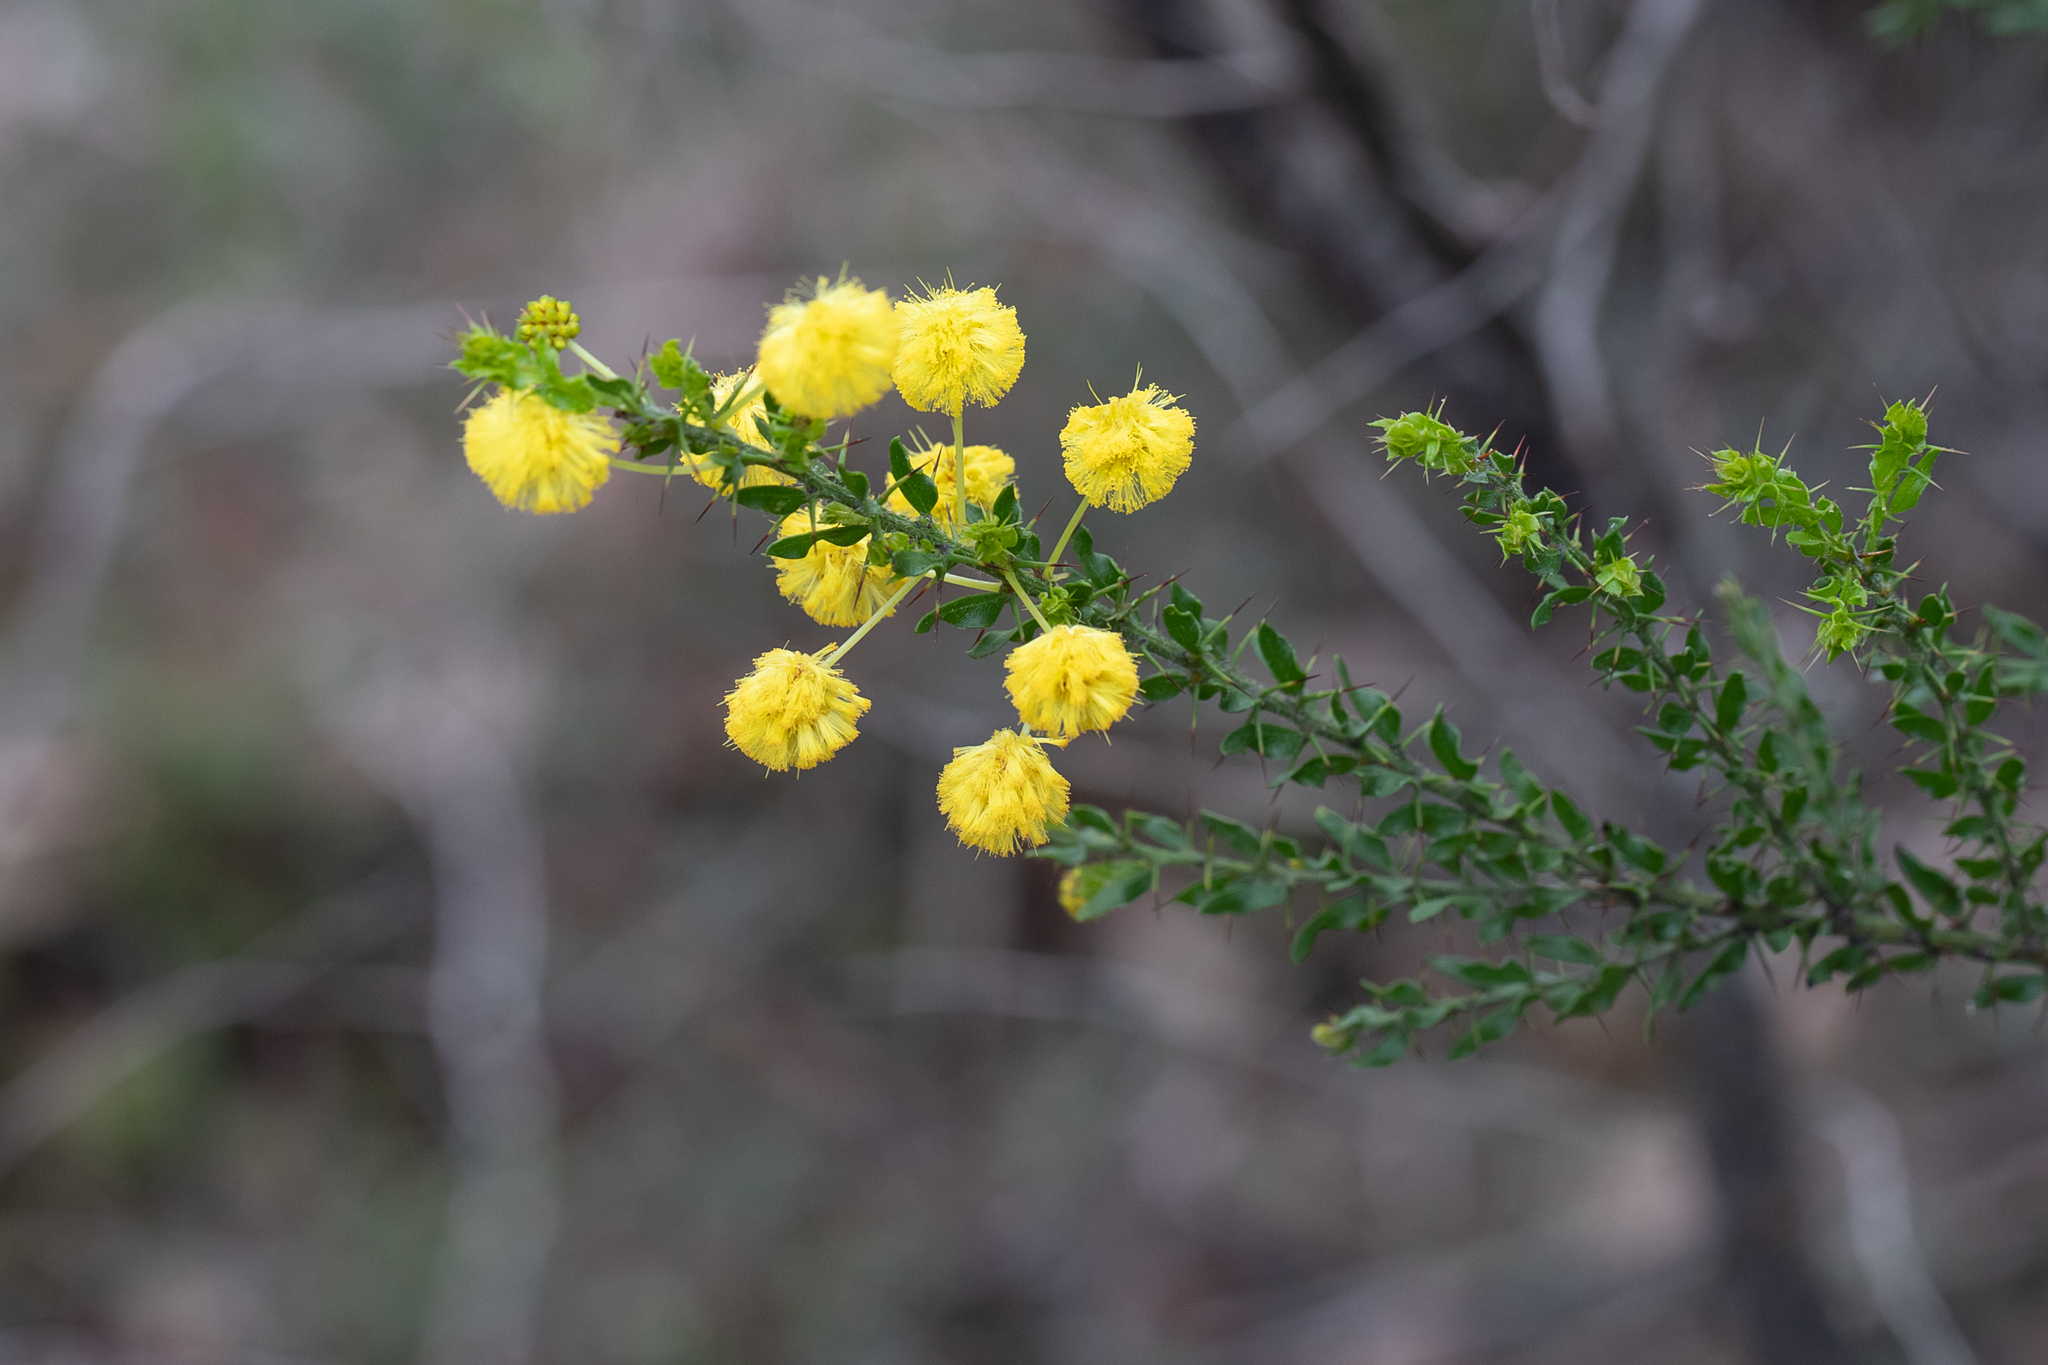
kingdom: Plantae
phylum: Tracheophyta
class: Magnoliopsida
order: Fabales
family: Fabaceae
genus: Acacia
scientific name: Acacia paradoxa
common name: Paradox acacia
